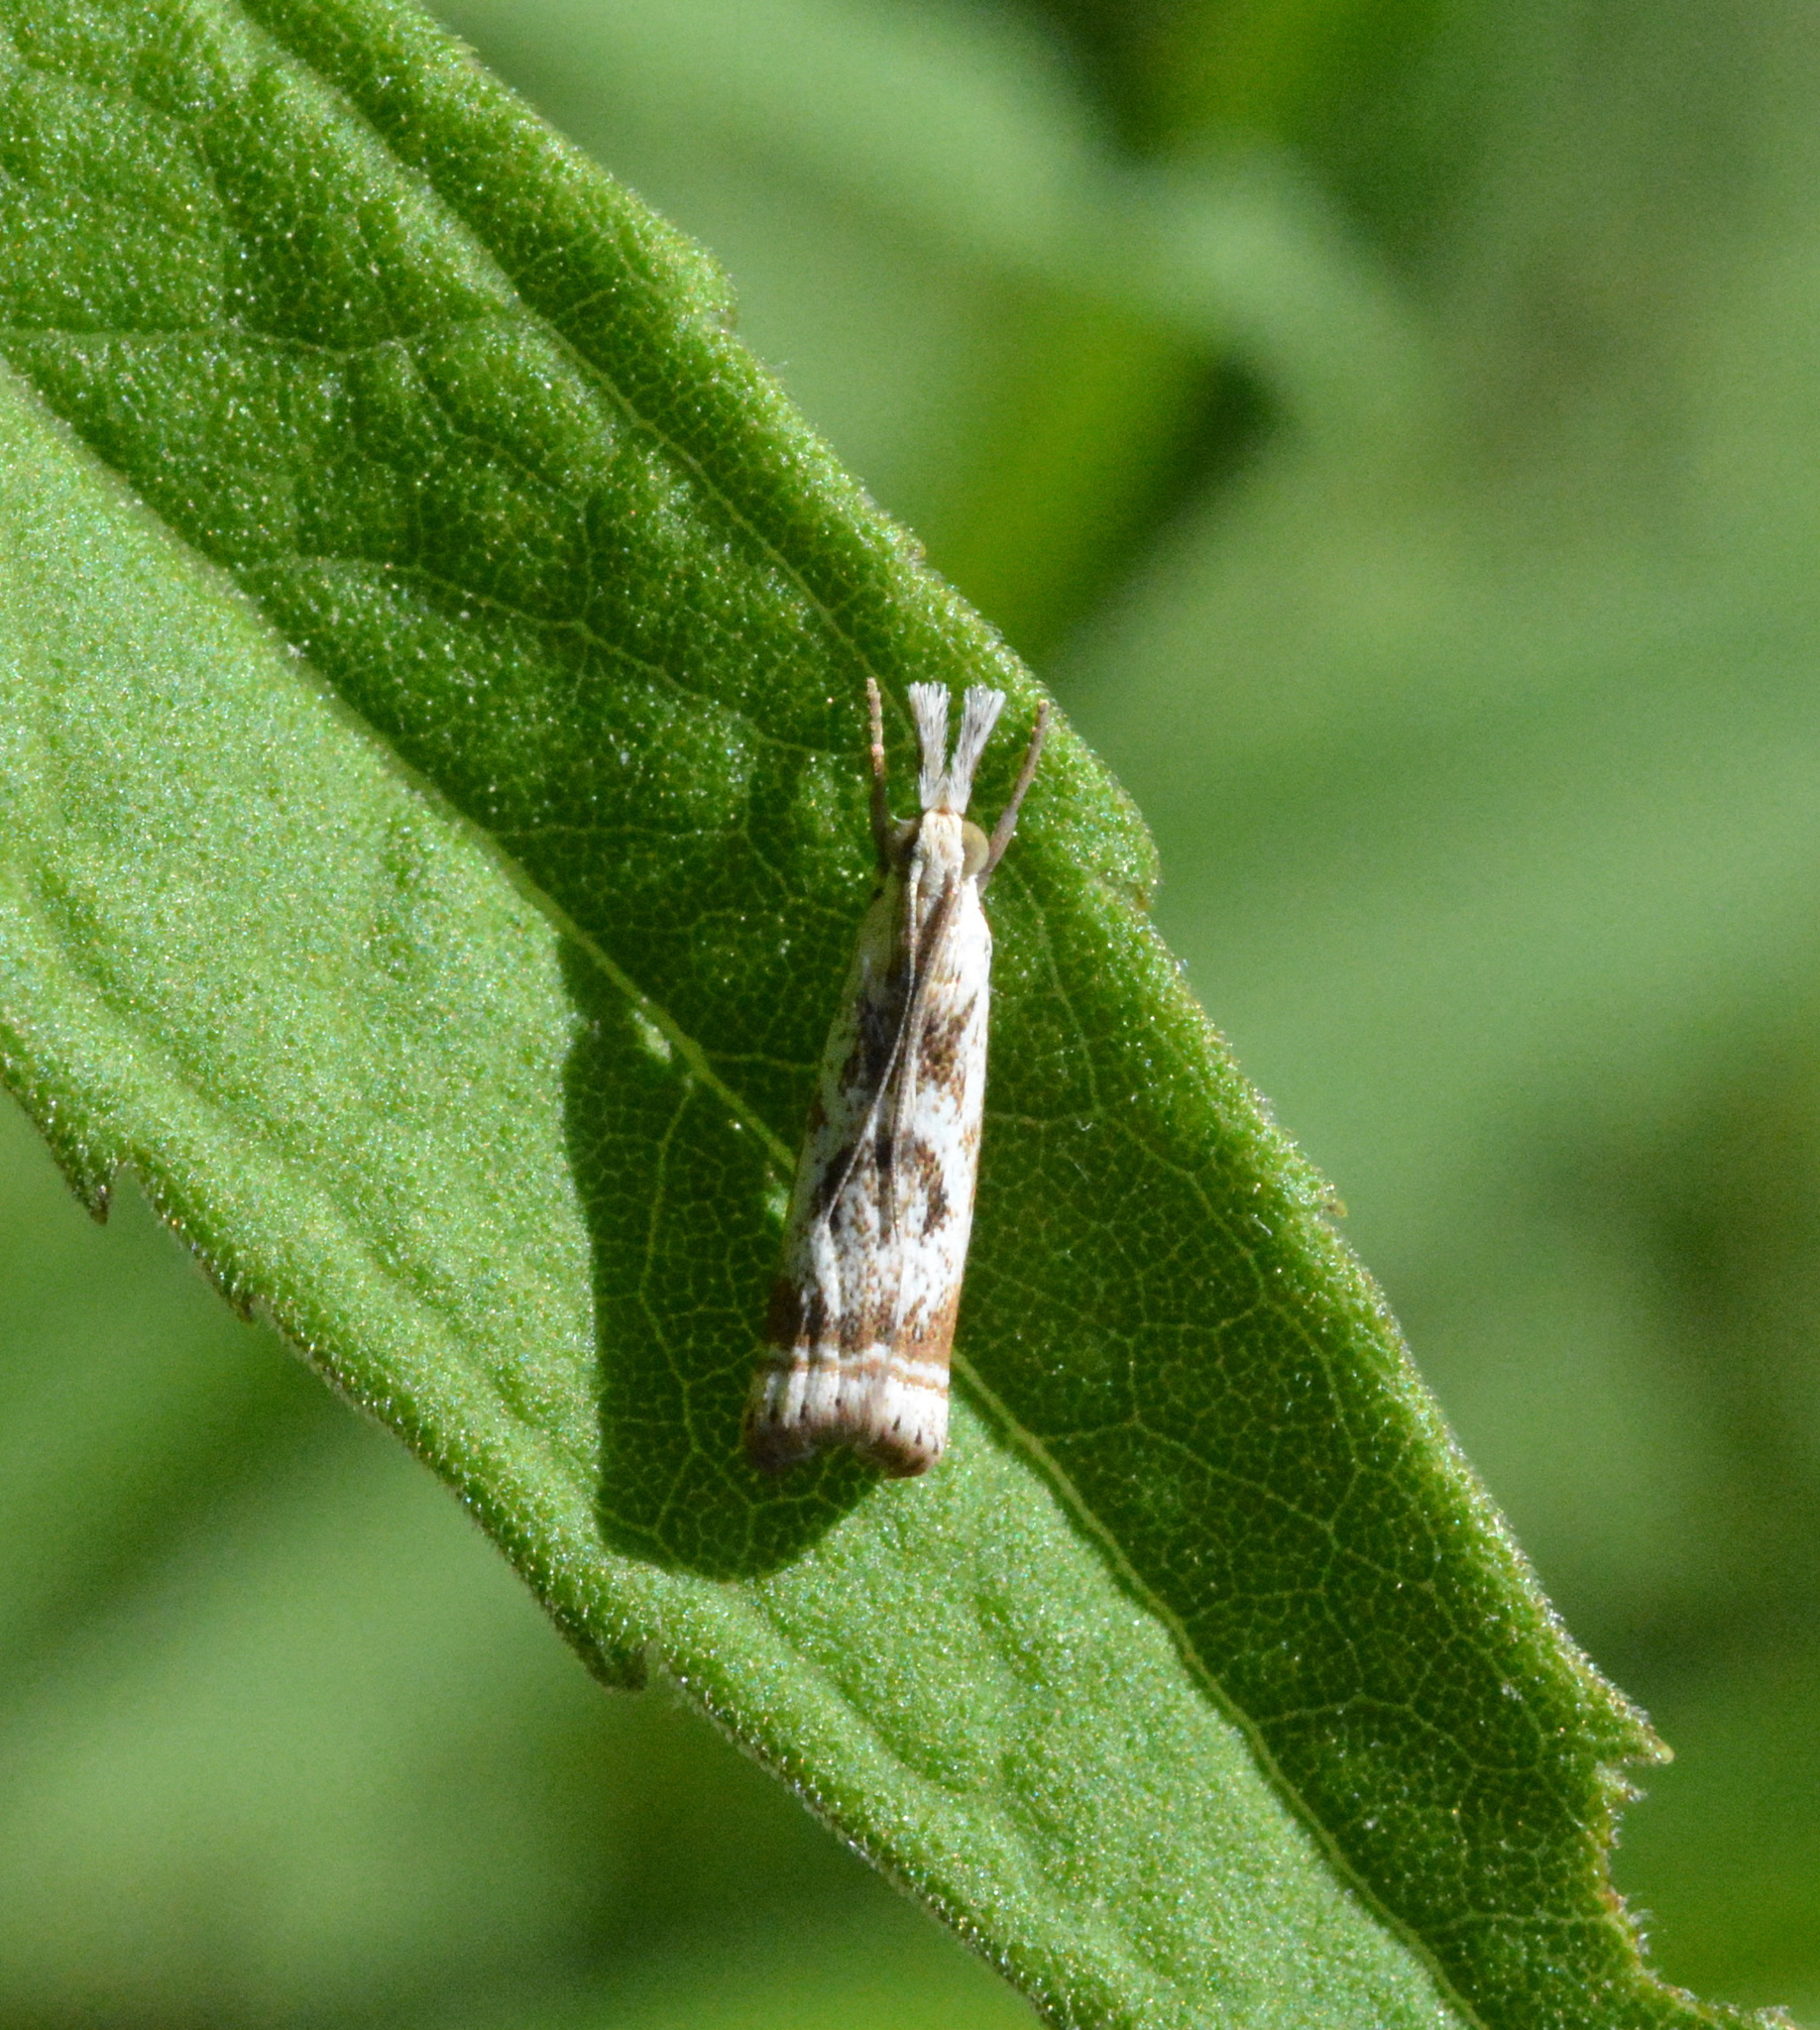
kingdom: Animalia
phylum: Arthropoda
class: Insecta
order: Lepidoptera
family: Crambidae
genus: Microcrambus
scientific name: Microcrambus elegans
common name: Elegant grass-veneer
